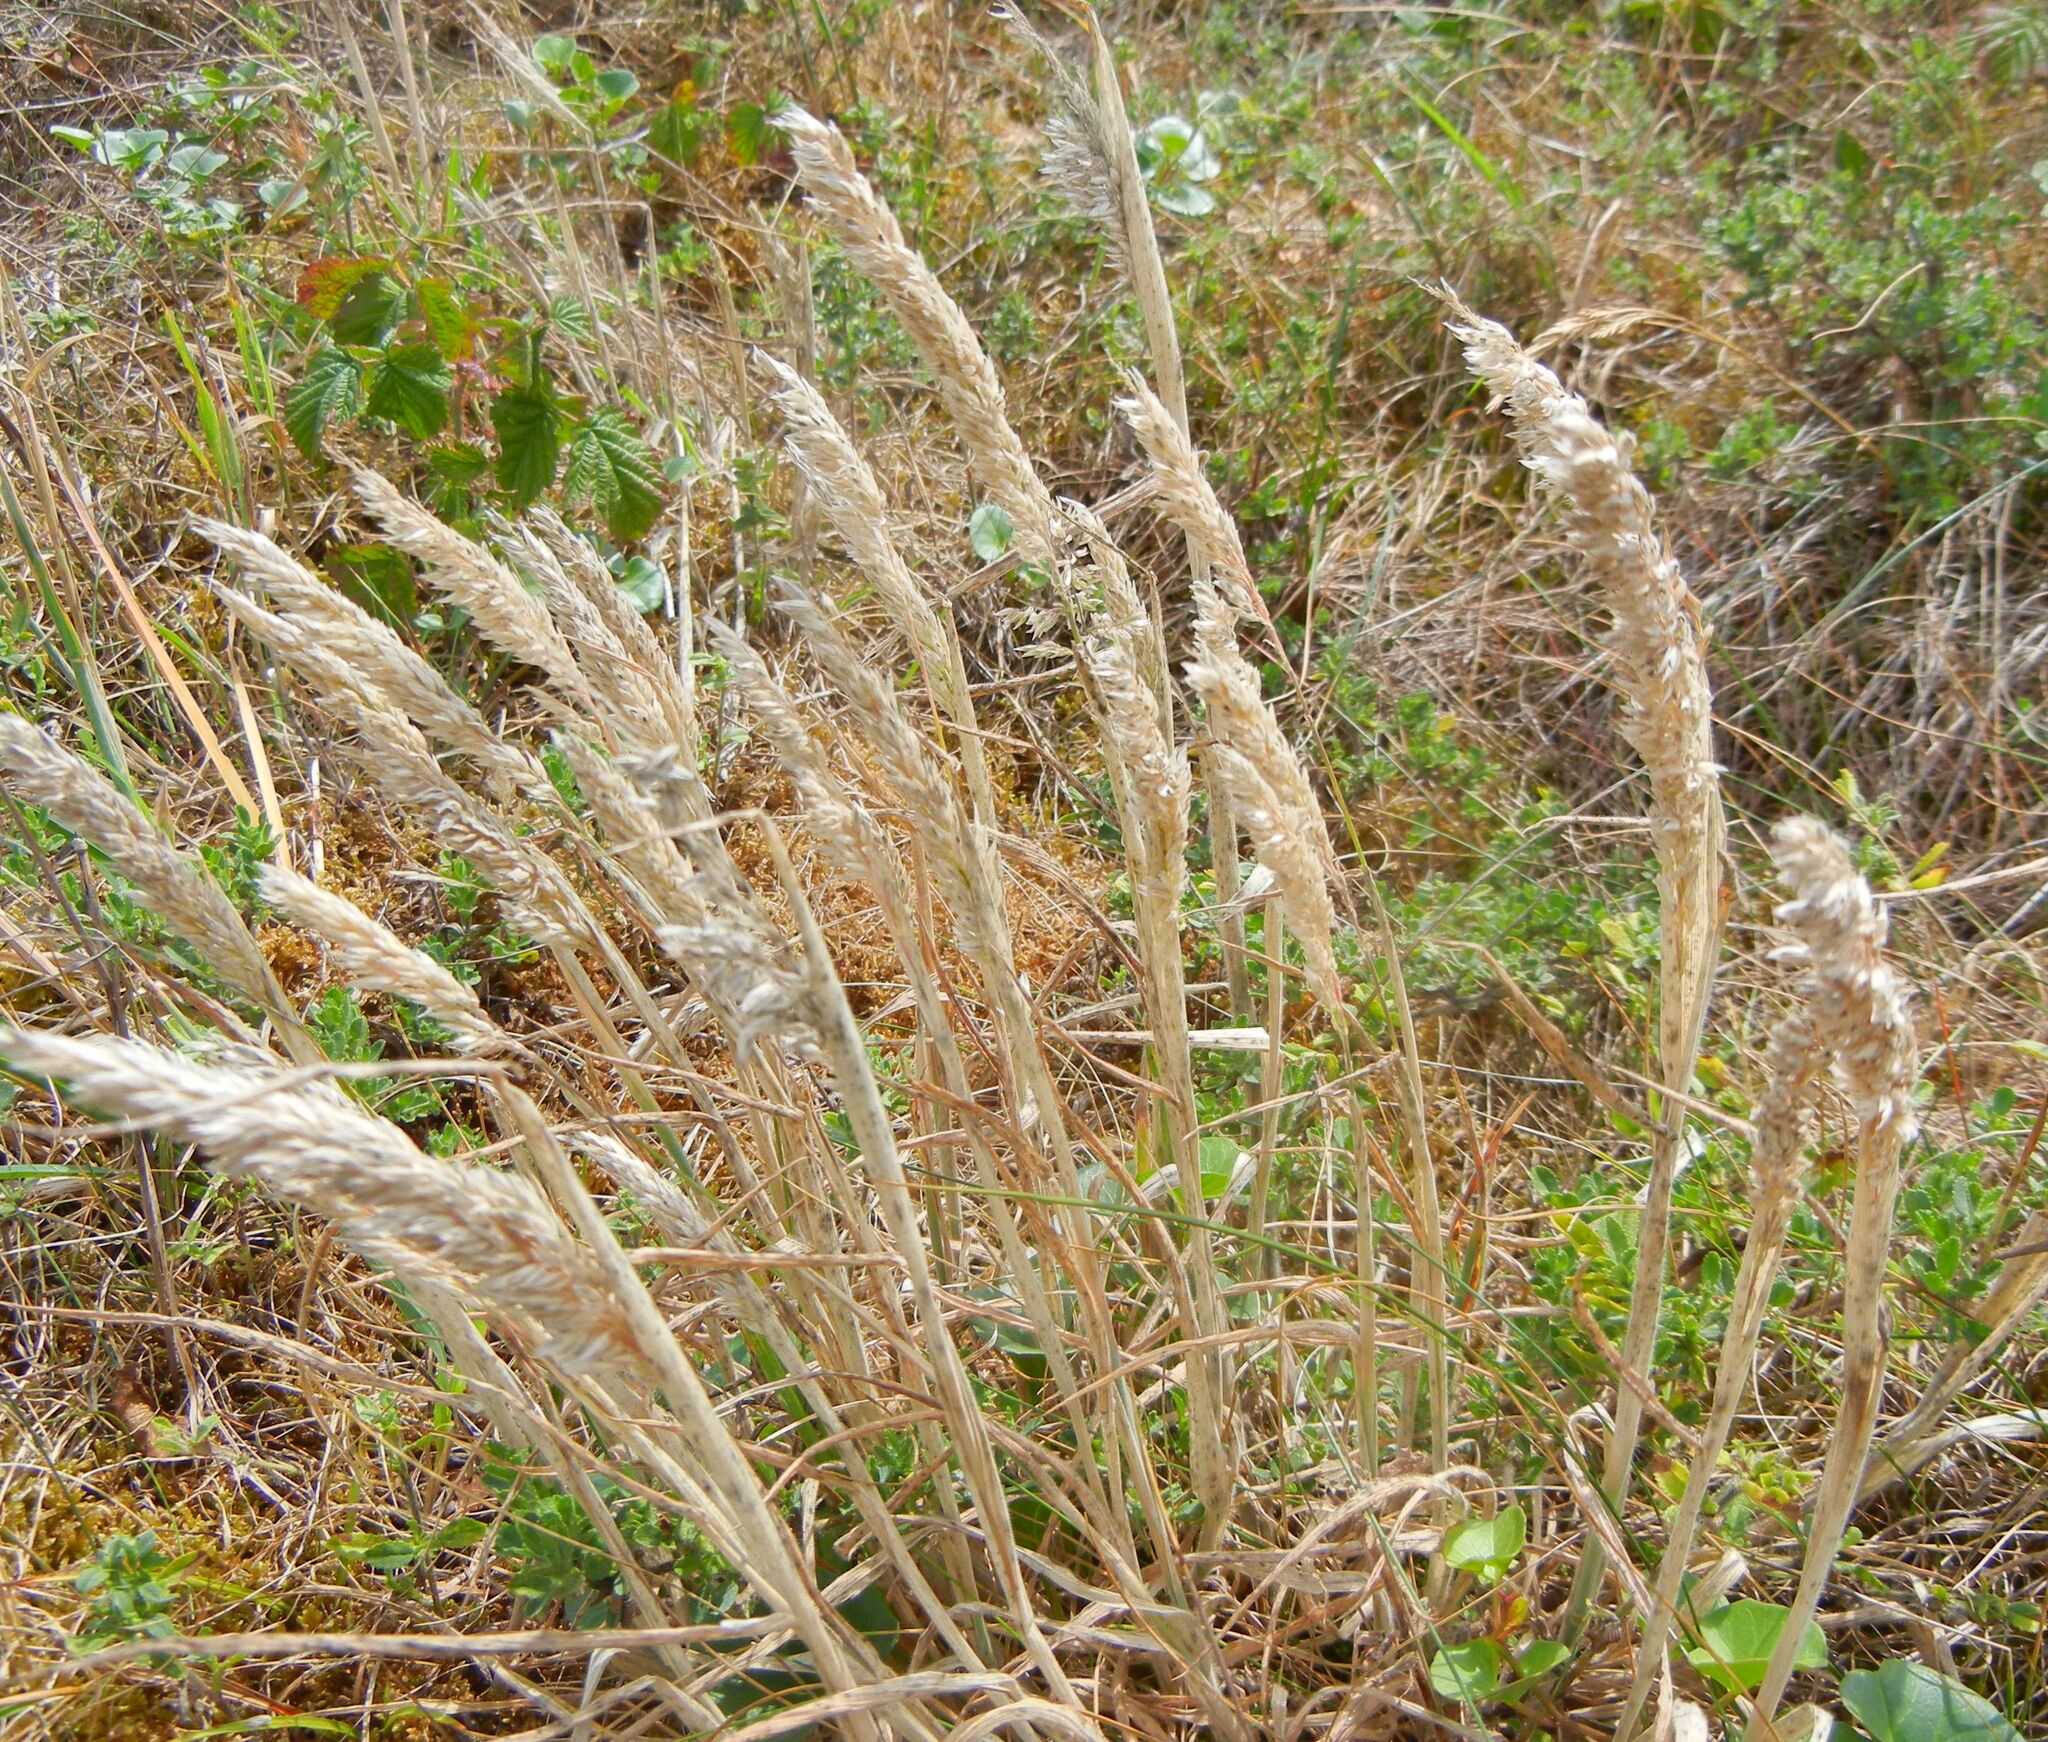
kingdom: Plantae
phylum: Tracheophyta
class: Liliopsida
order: Poales
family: Poaceae
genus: Holcus
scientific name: Holcus lanatus
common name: Yorkshire-fog
